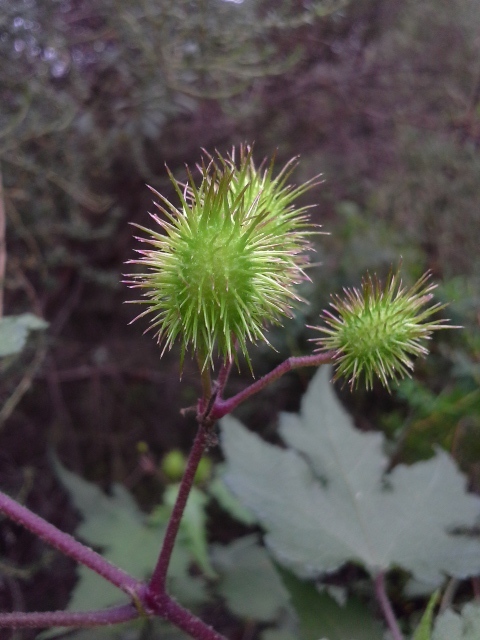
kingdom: Plantae
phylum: Tracheophyta
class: Magnoliopsida
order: Malvales
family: Malvaceae
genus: Sparrmannia
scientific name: Sparrmannia ricinocarpa
